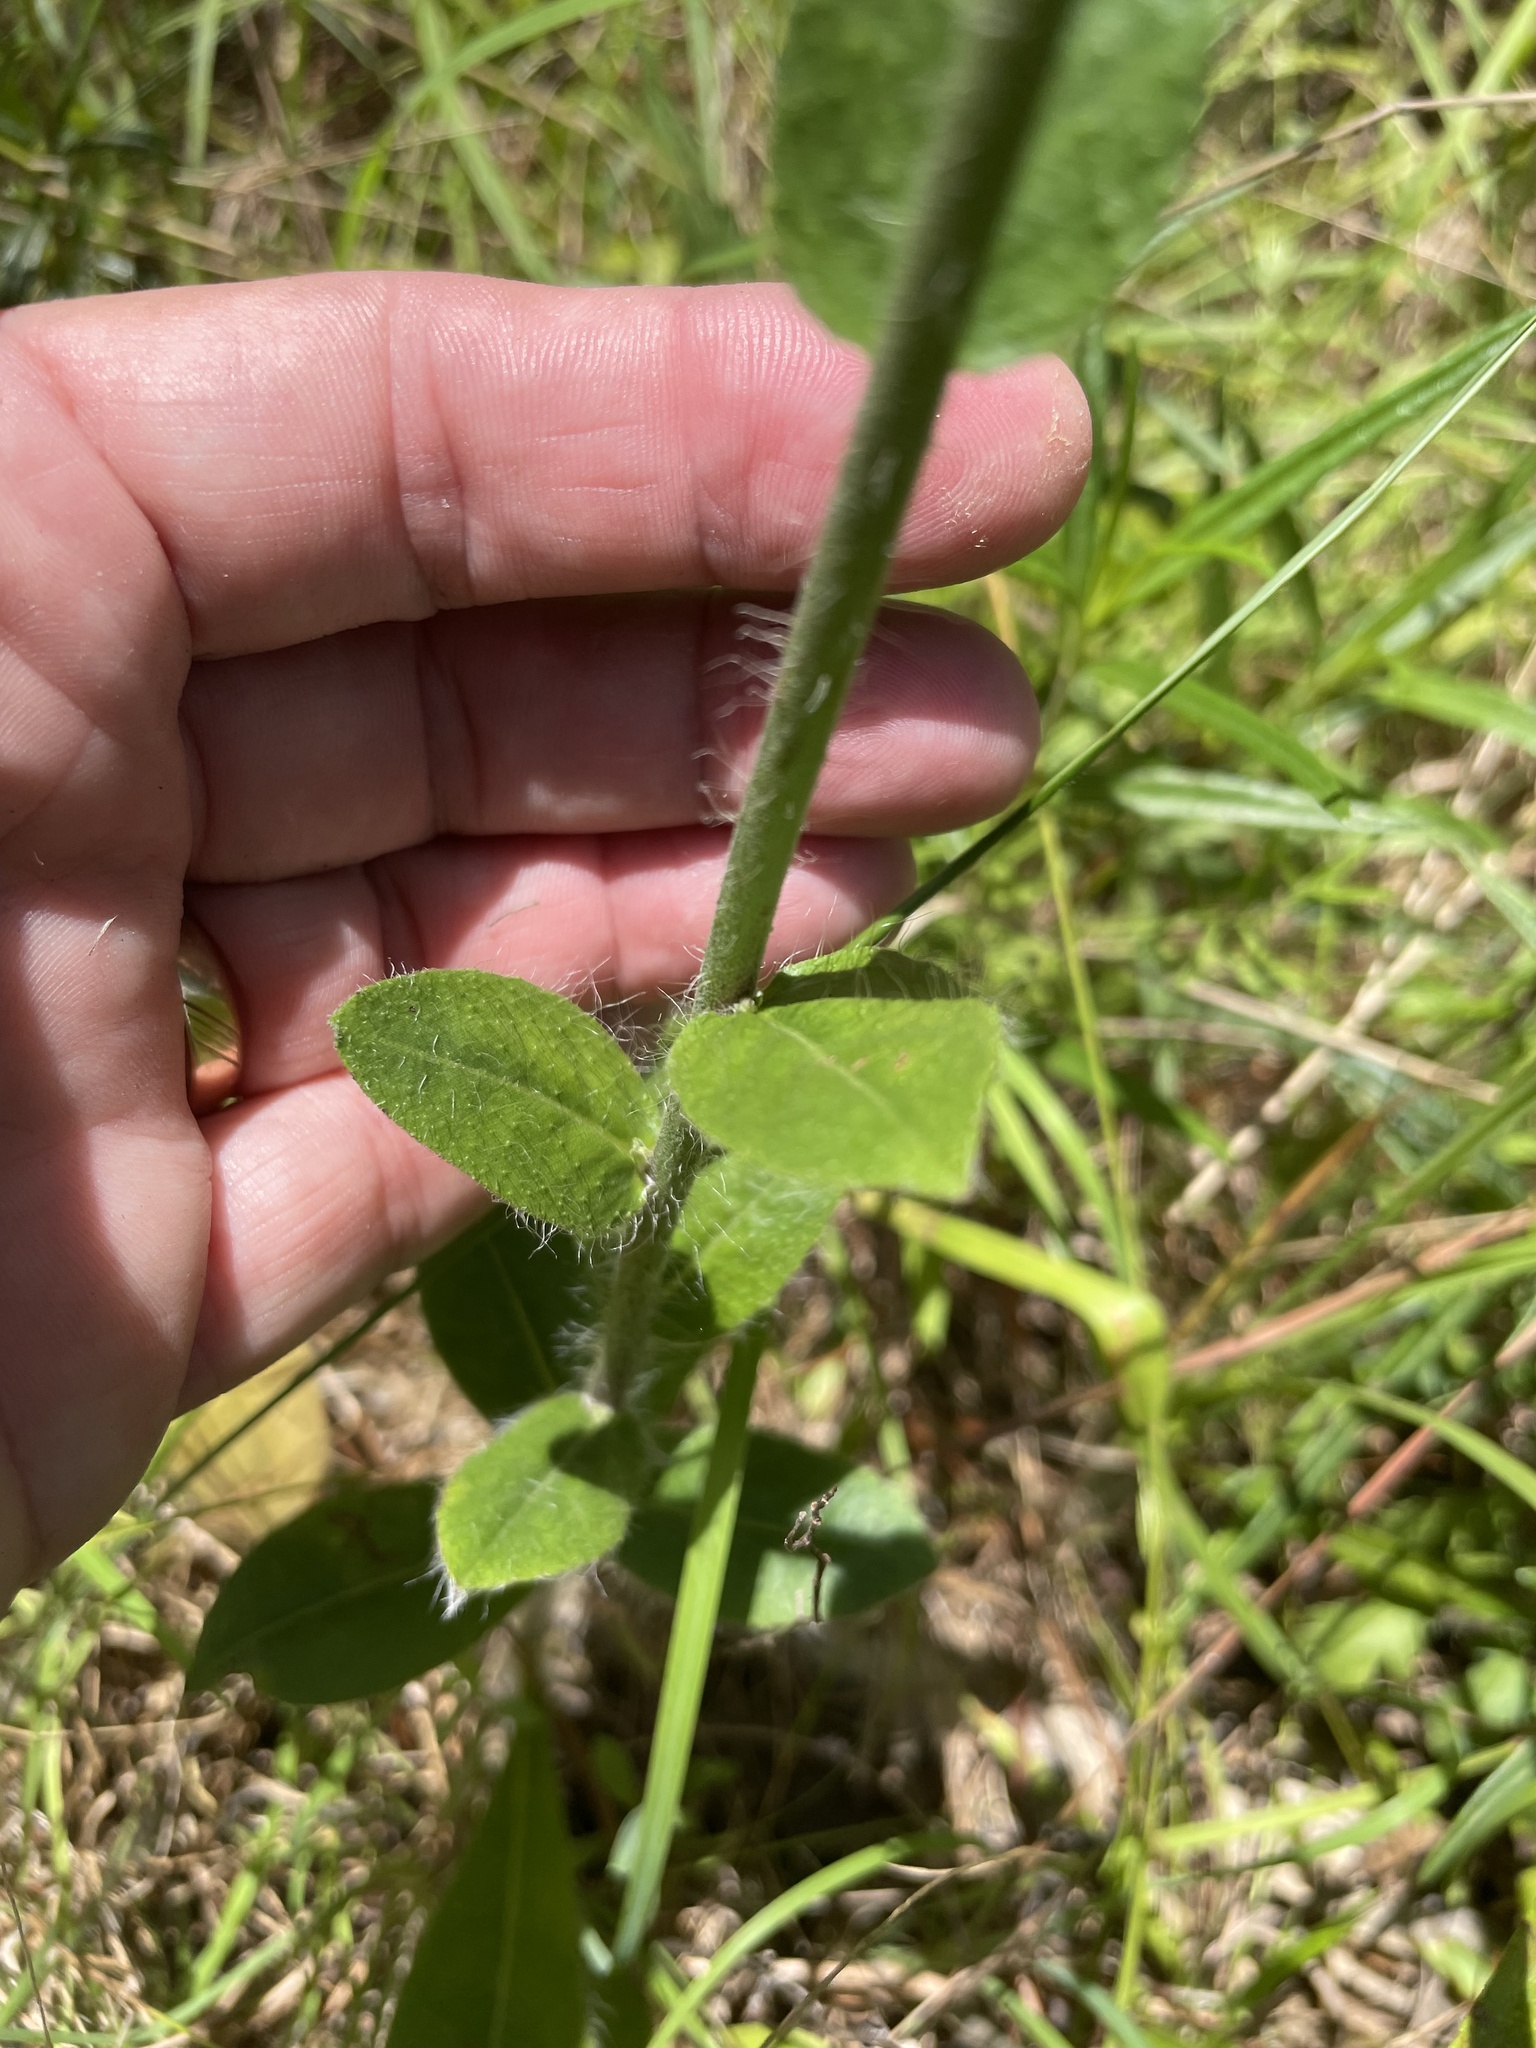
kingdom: Plantae
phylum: Tracheophyta
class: Magnoliopsida
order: Asterales
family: Asteraceae
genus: Hieracium
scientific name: Hieracium gronovii
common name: Beaked hawkweed
